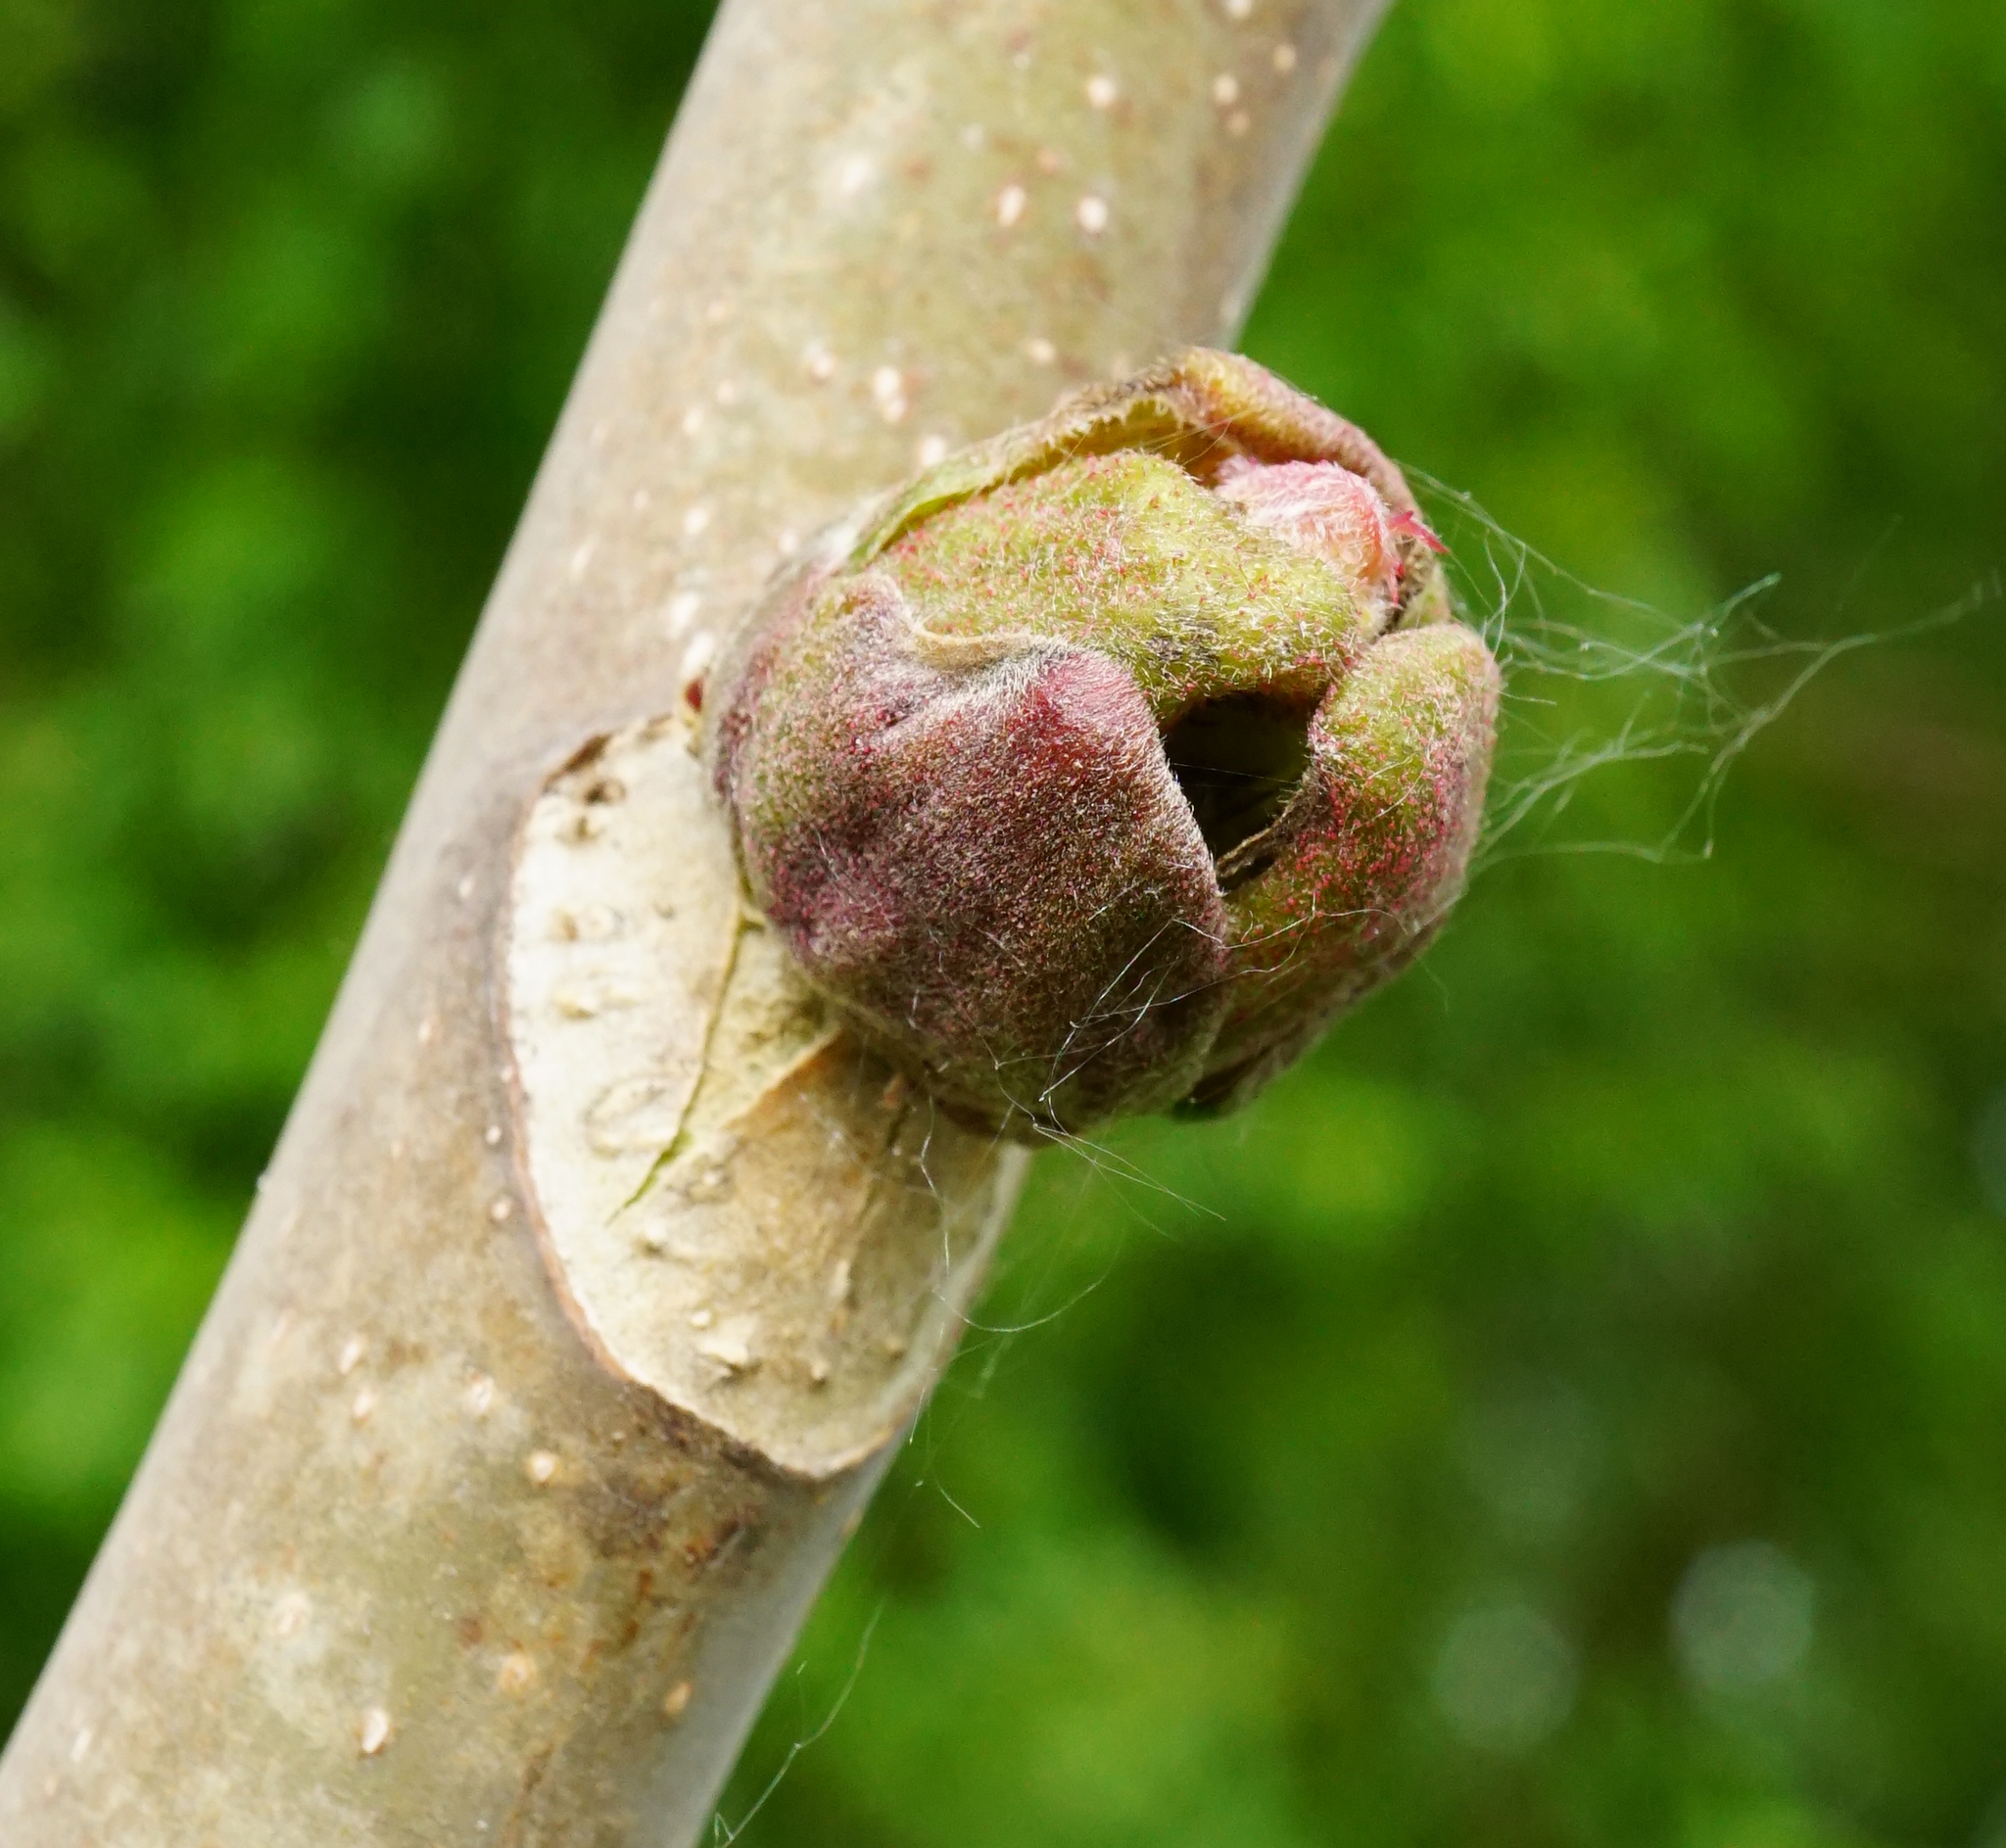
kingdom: Plantae
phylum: Tracheophyta
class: Magnoliopsida
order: Sapindales
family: Simaroubaceae
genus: Ailanthus
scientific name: Ailanthus altissima
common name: Tree-of-heaven
